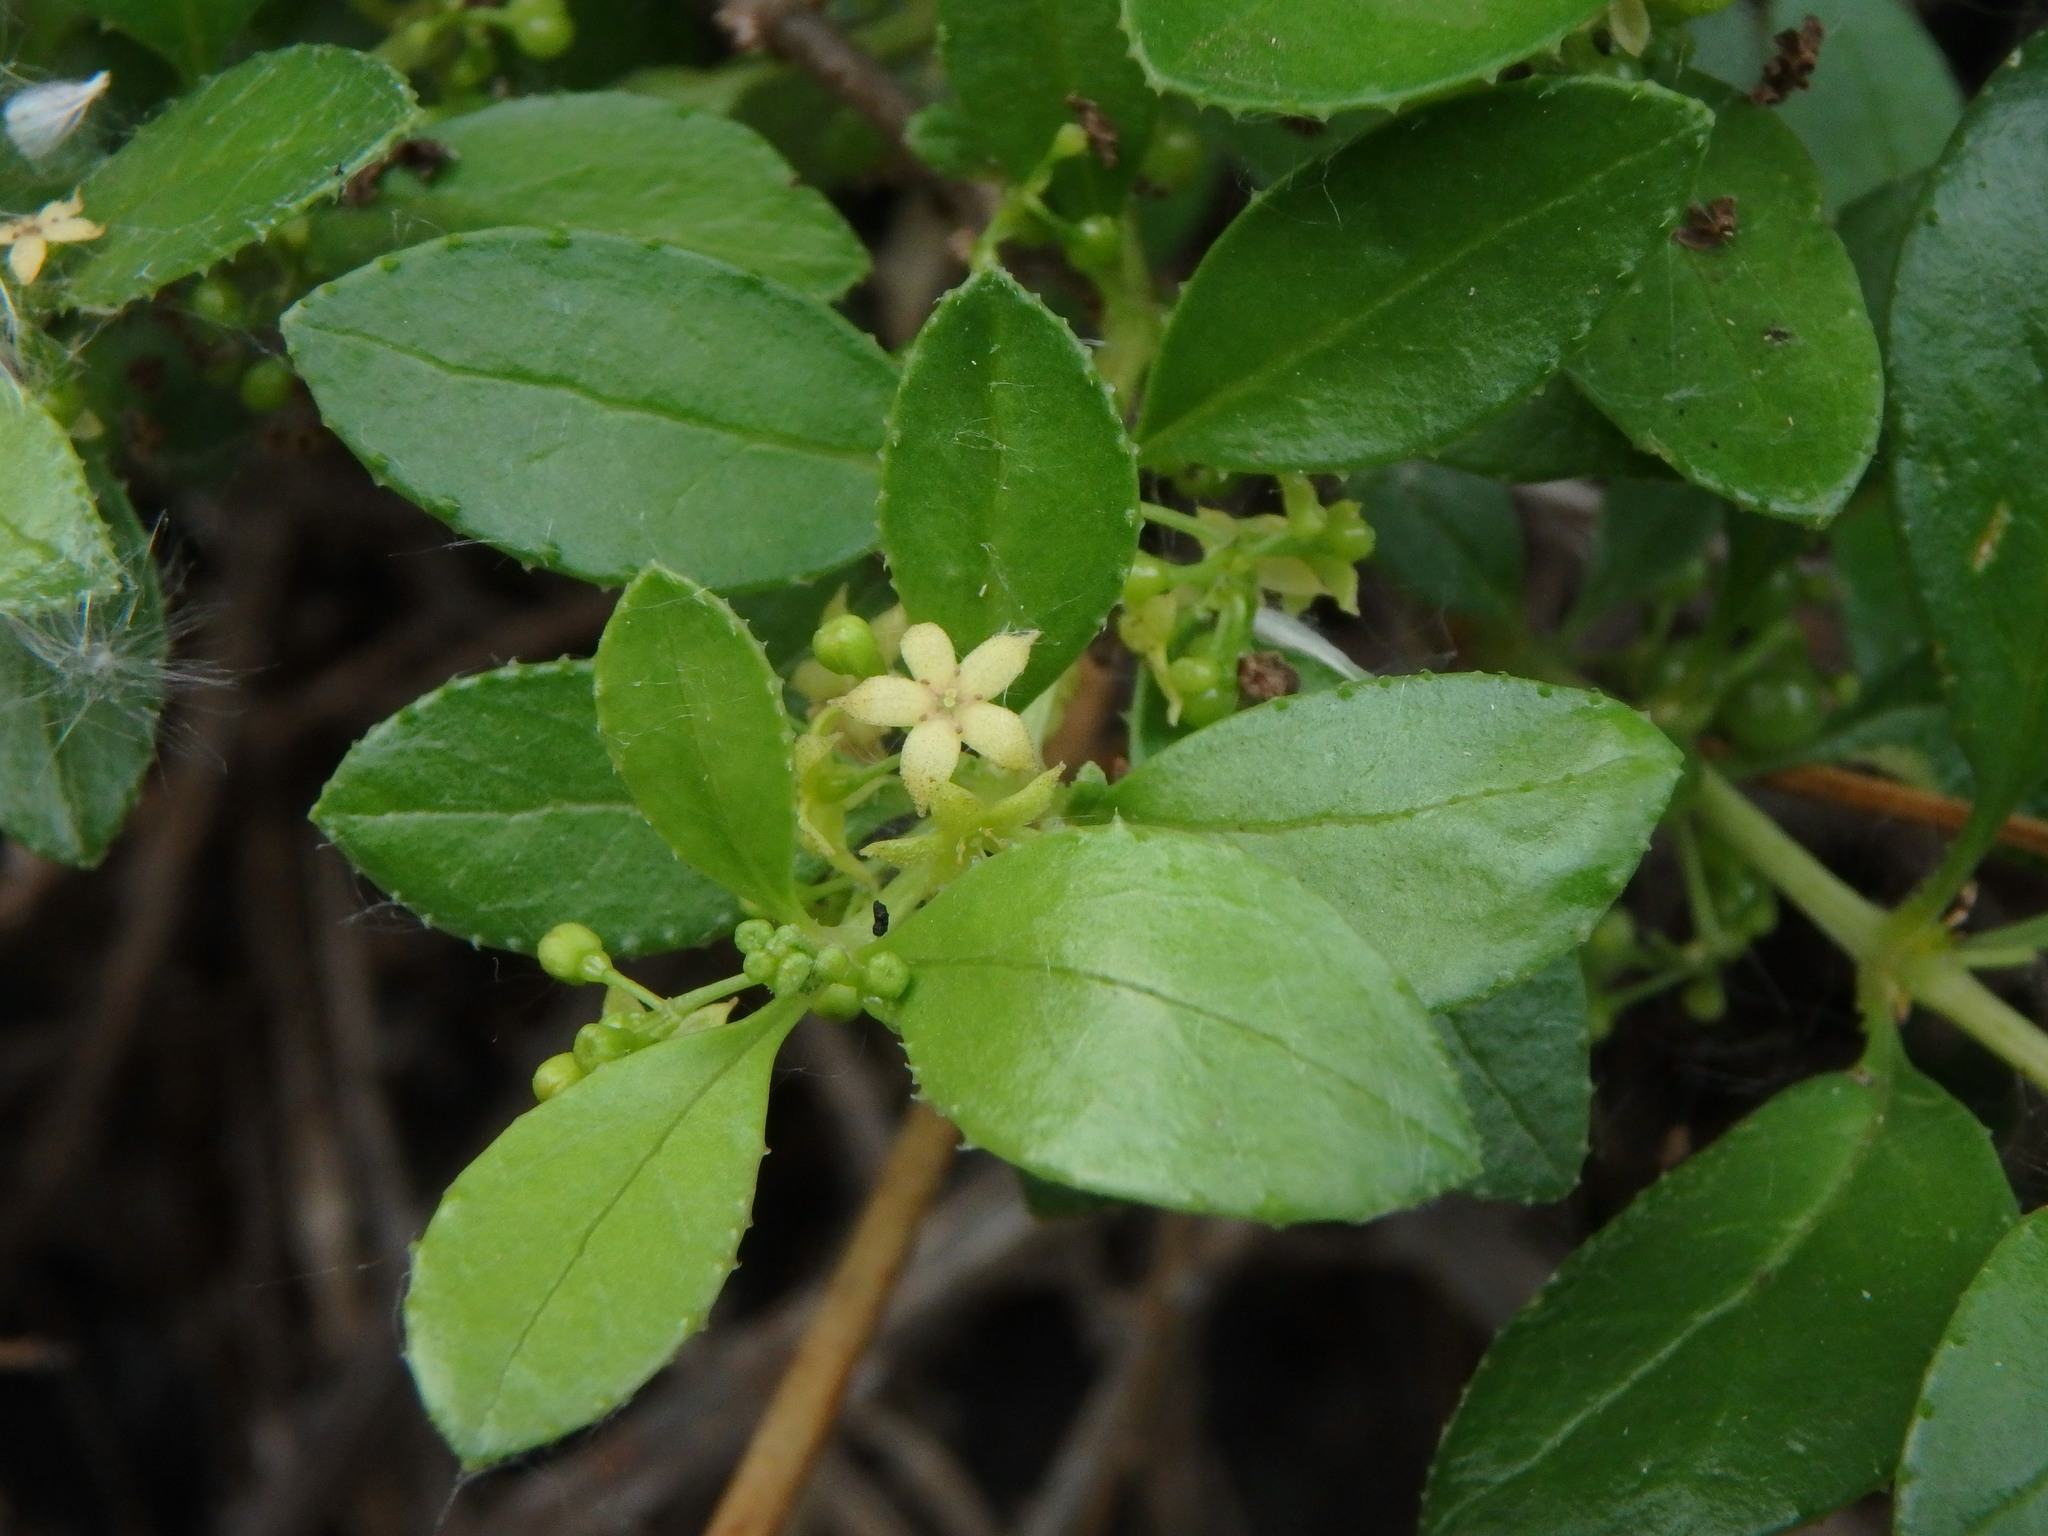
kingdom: Plantae
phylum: Tracheophyta
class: Magnoliopsida
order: Gentianales
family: Rubiaceae
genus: Rubia
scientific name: Rubia fruticosa
